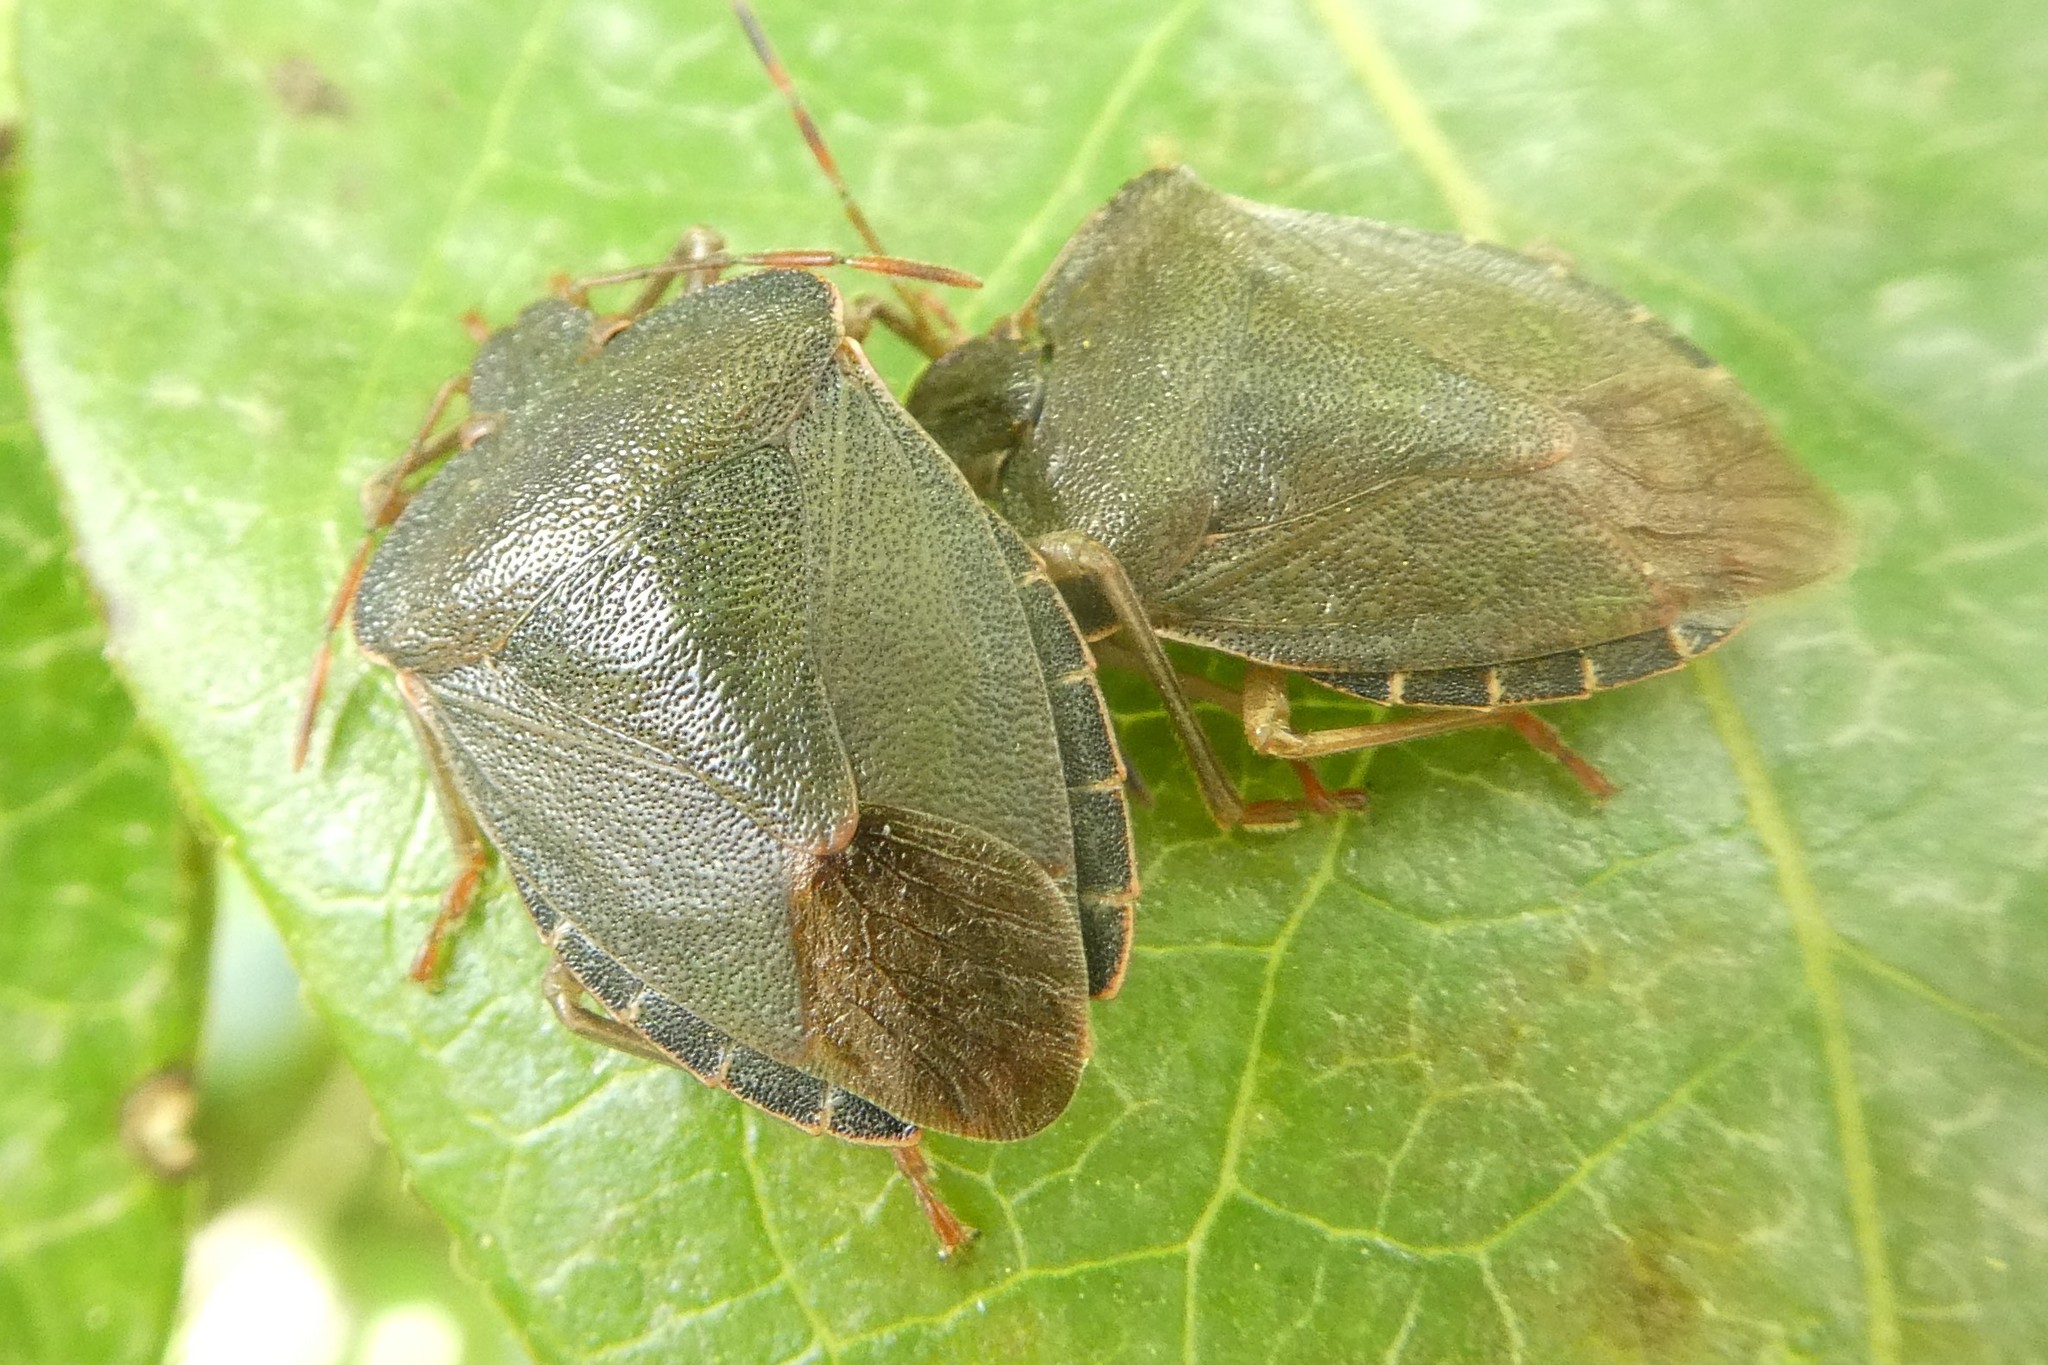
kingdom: Animalia
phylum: Arthropoda
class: Insecta
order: Hemiptera
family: Pentatomidae
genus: Palomena
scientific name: Palomena prasina
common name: Green shieldbug
